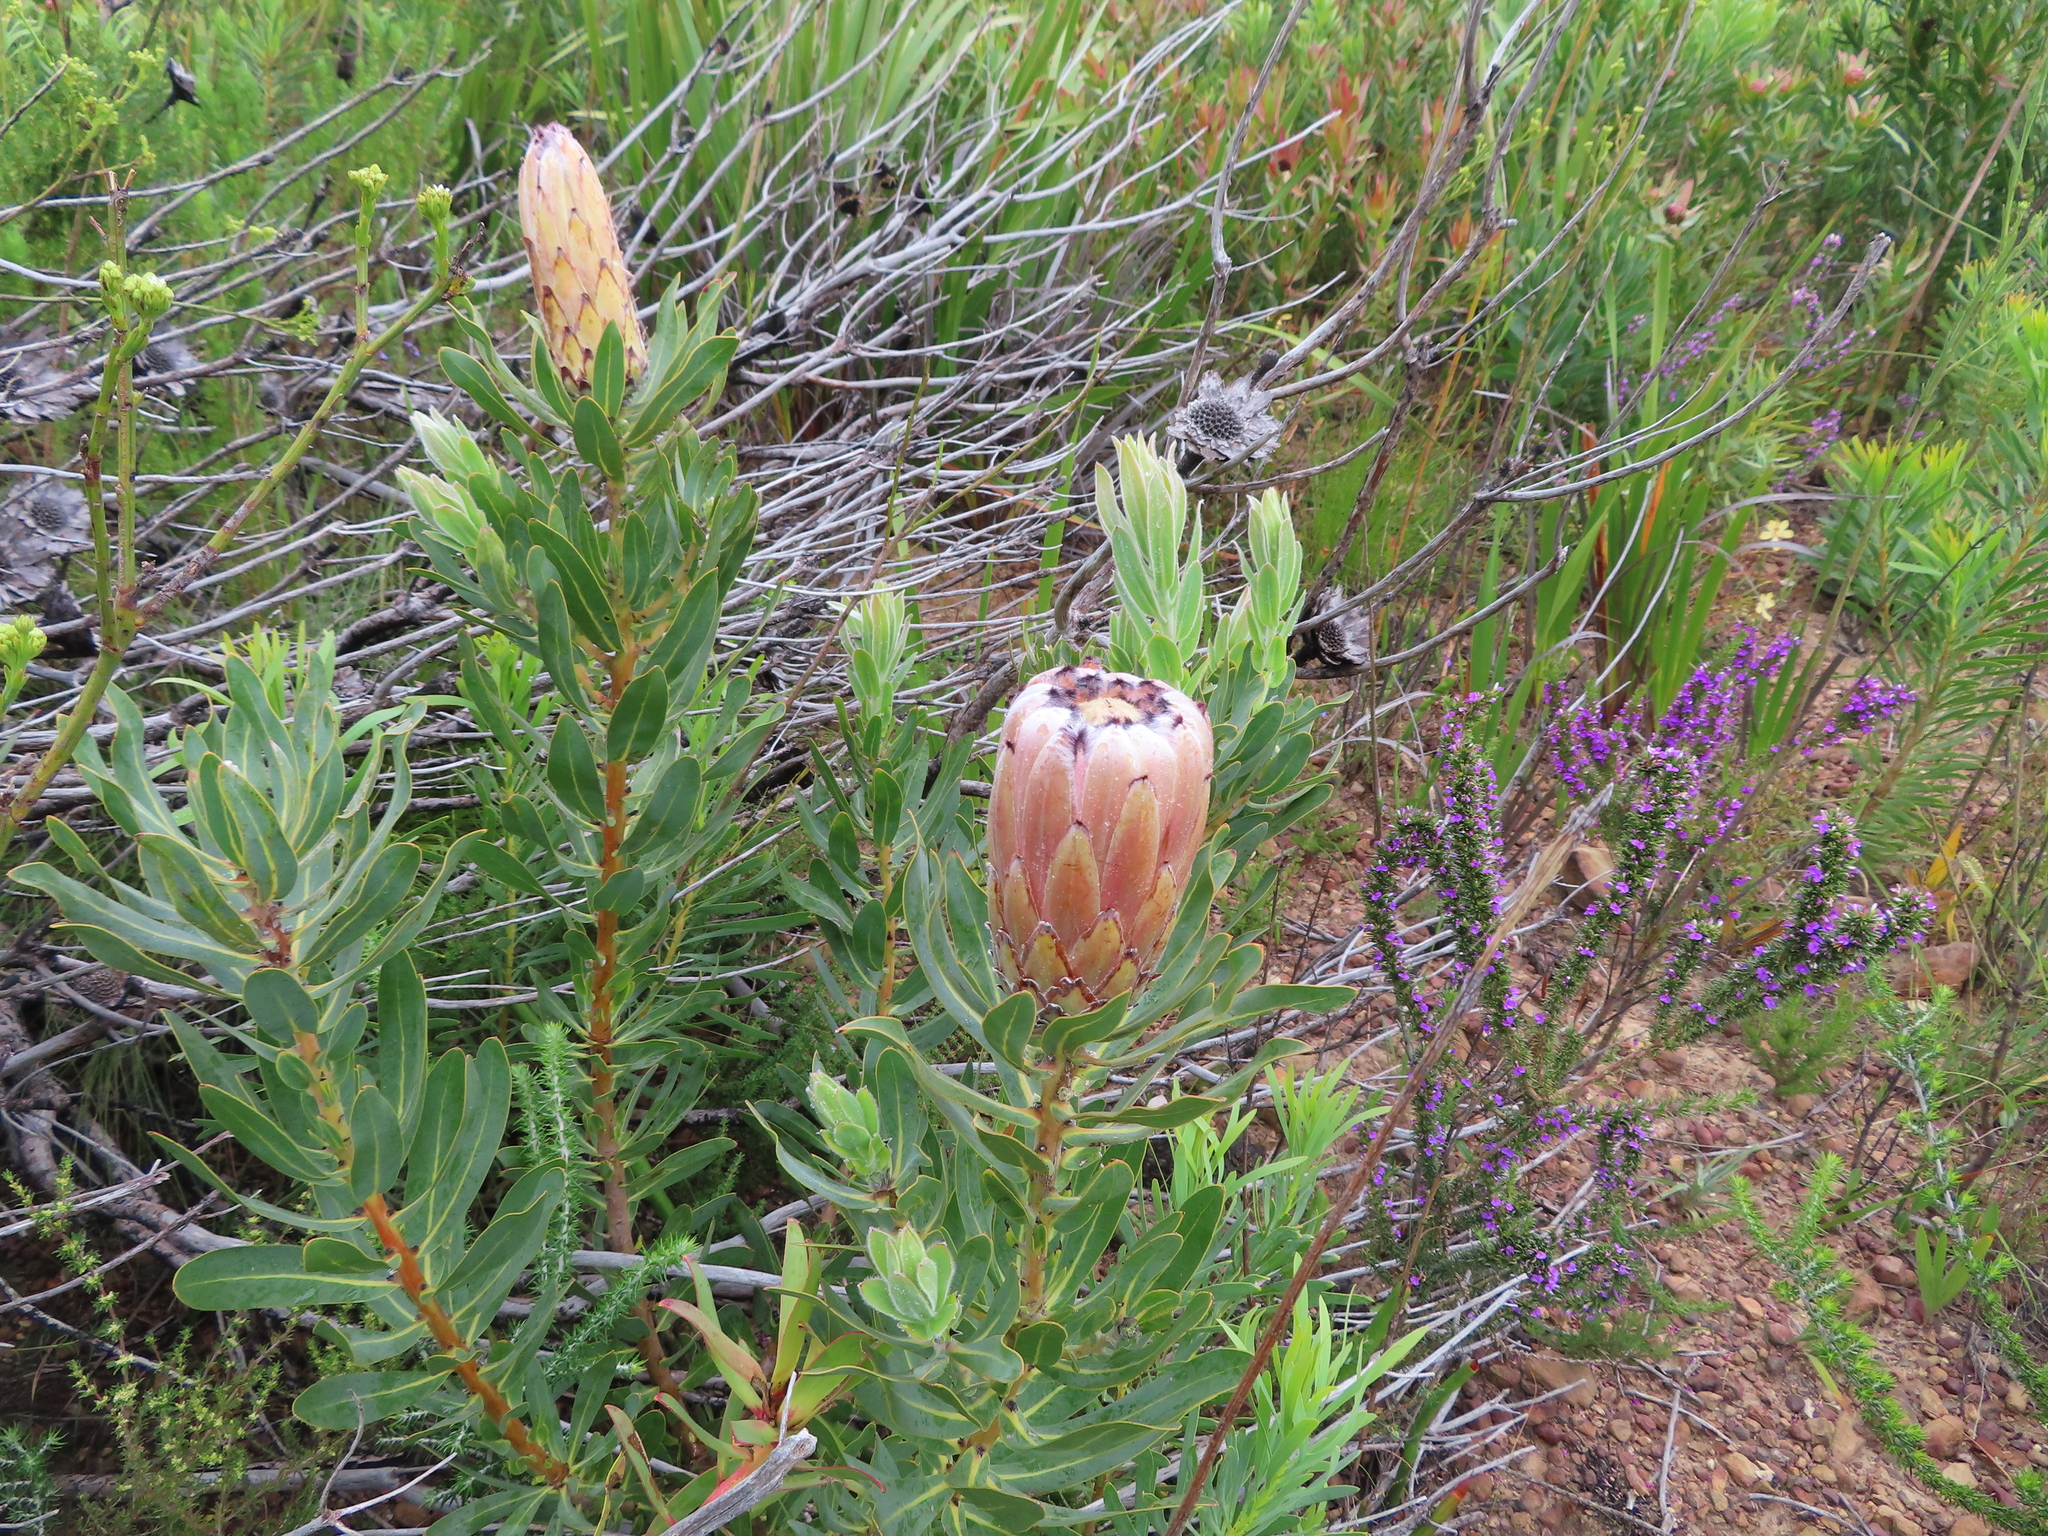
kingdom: Plantae
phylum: Tracheophyta
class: Magnoliopsida
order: Fabales
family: Polygalaceae
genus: Muraltia
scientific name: Muraltia heisteria
